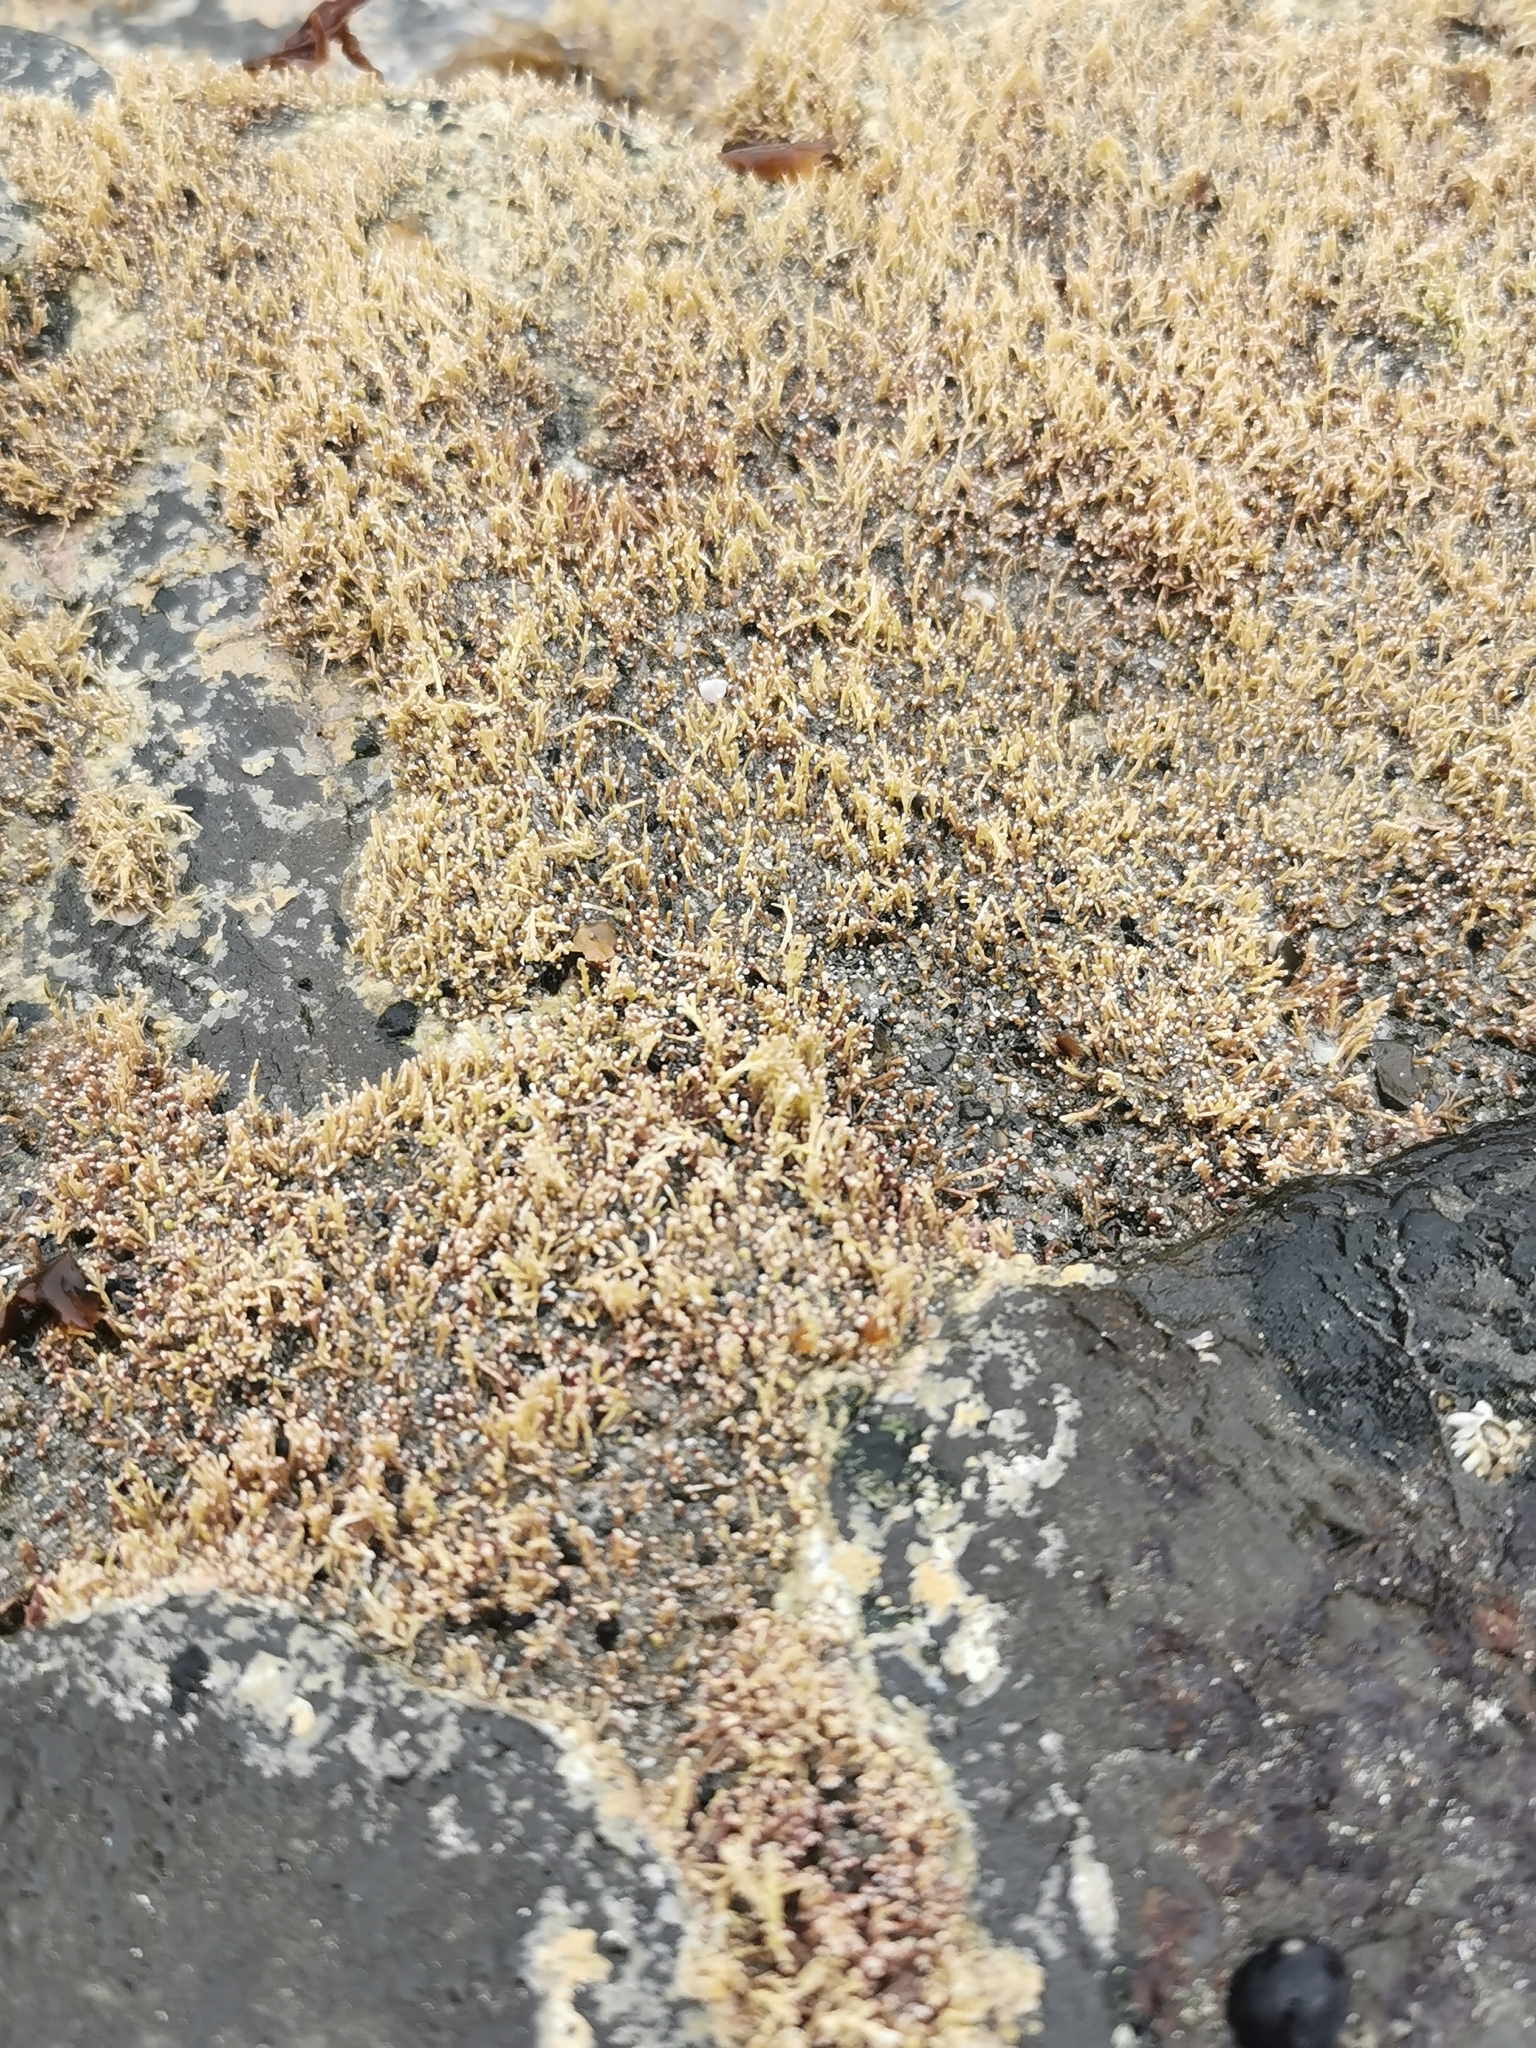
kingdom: Plantae
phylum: Rhodophyta
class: Florideophyceae
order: Corallinales
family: Corallinaceae
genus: Corallina
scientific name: Corallina officinalis
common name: Coral weed
